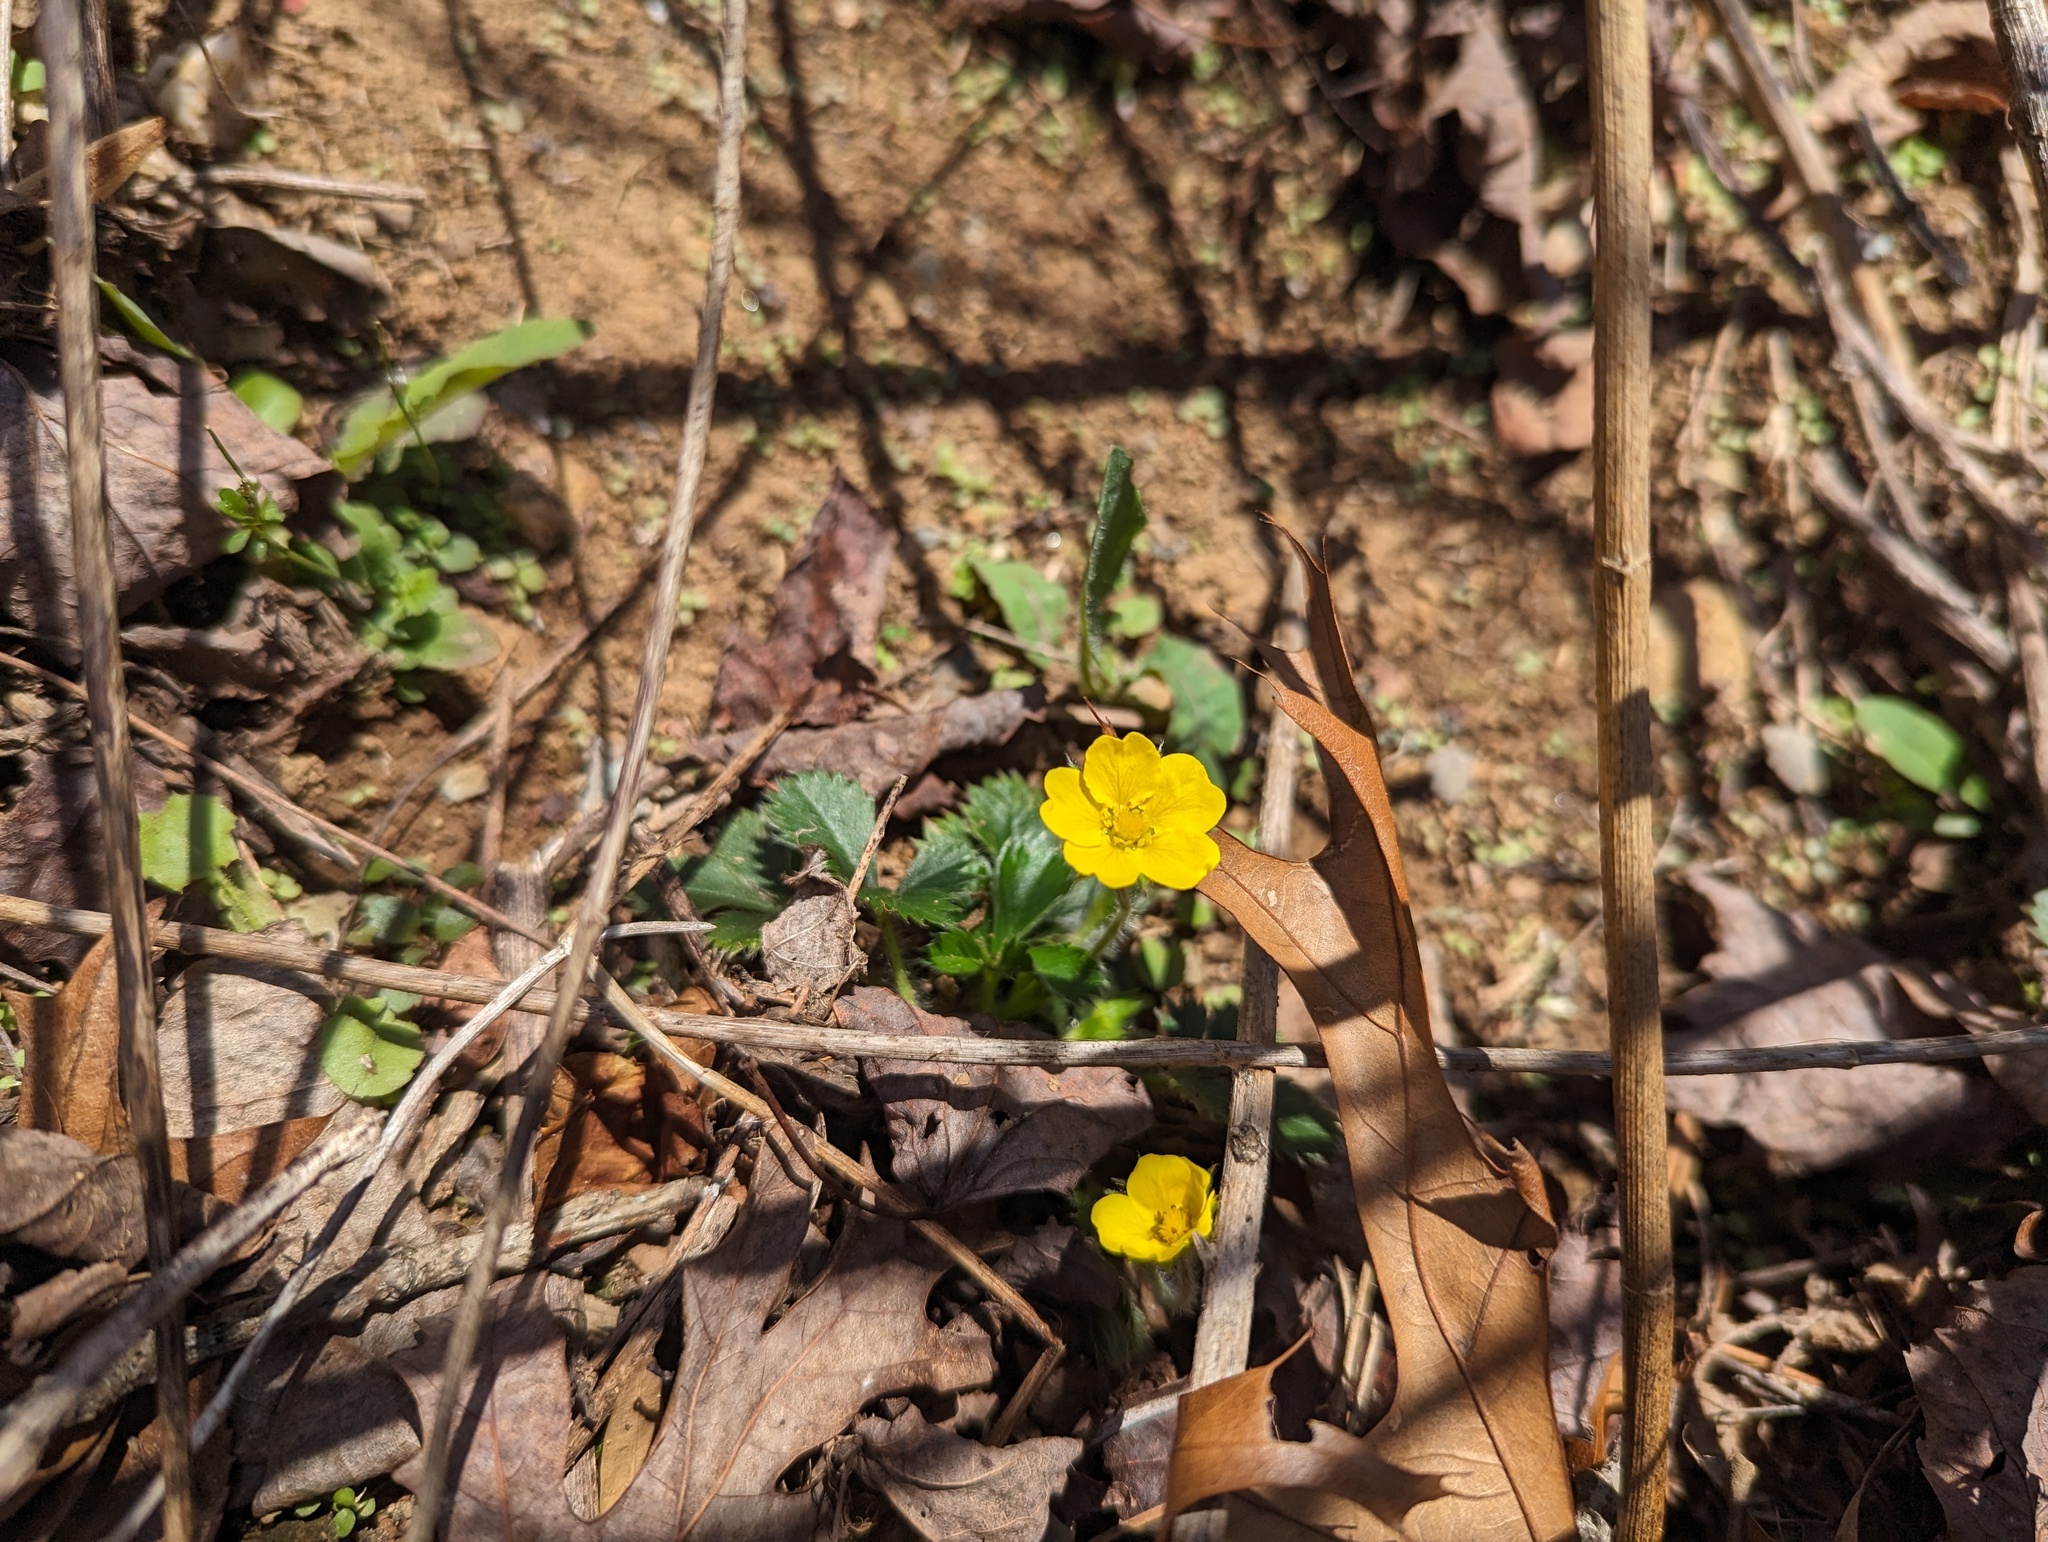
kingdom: Plantae
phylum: Tracheophyta
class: Magnoliopsida
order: Rosales
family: Rosaceae
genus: Potentilla
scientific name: Potentilla canadensis
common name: Canada cinquefoil
